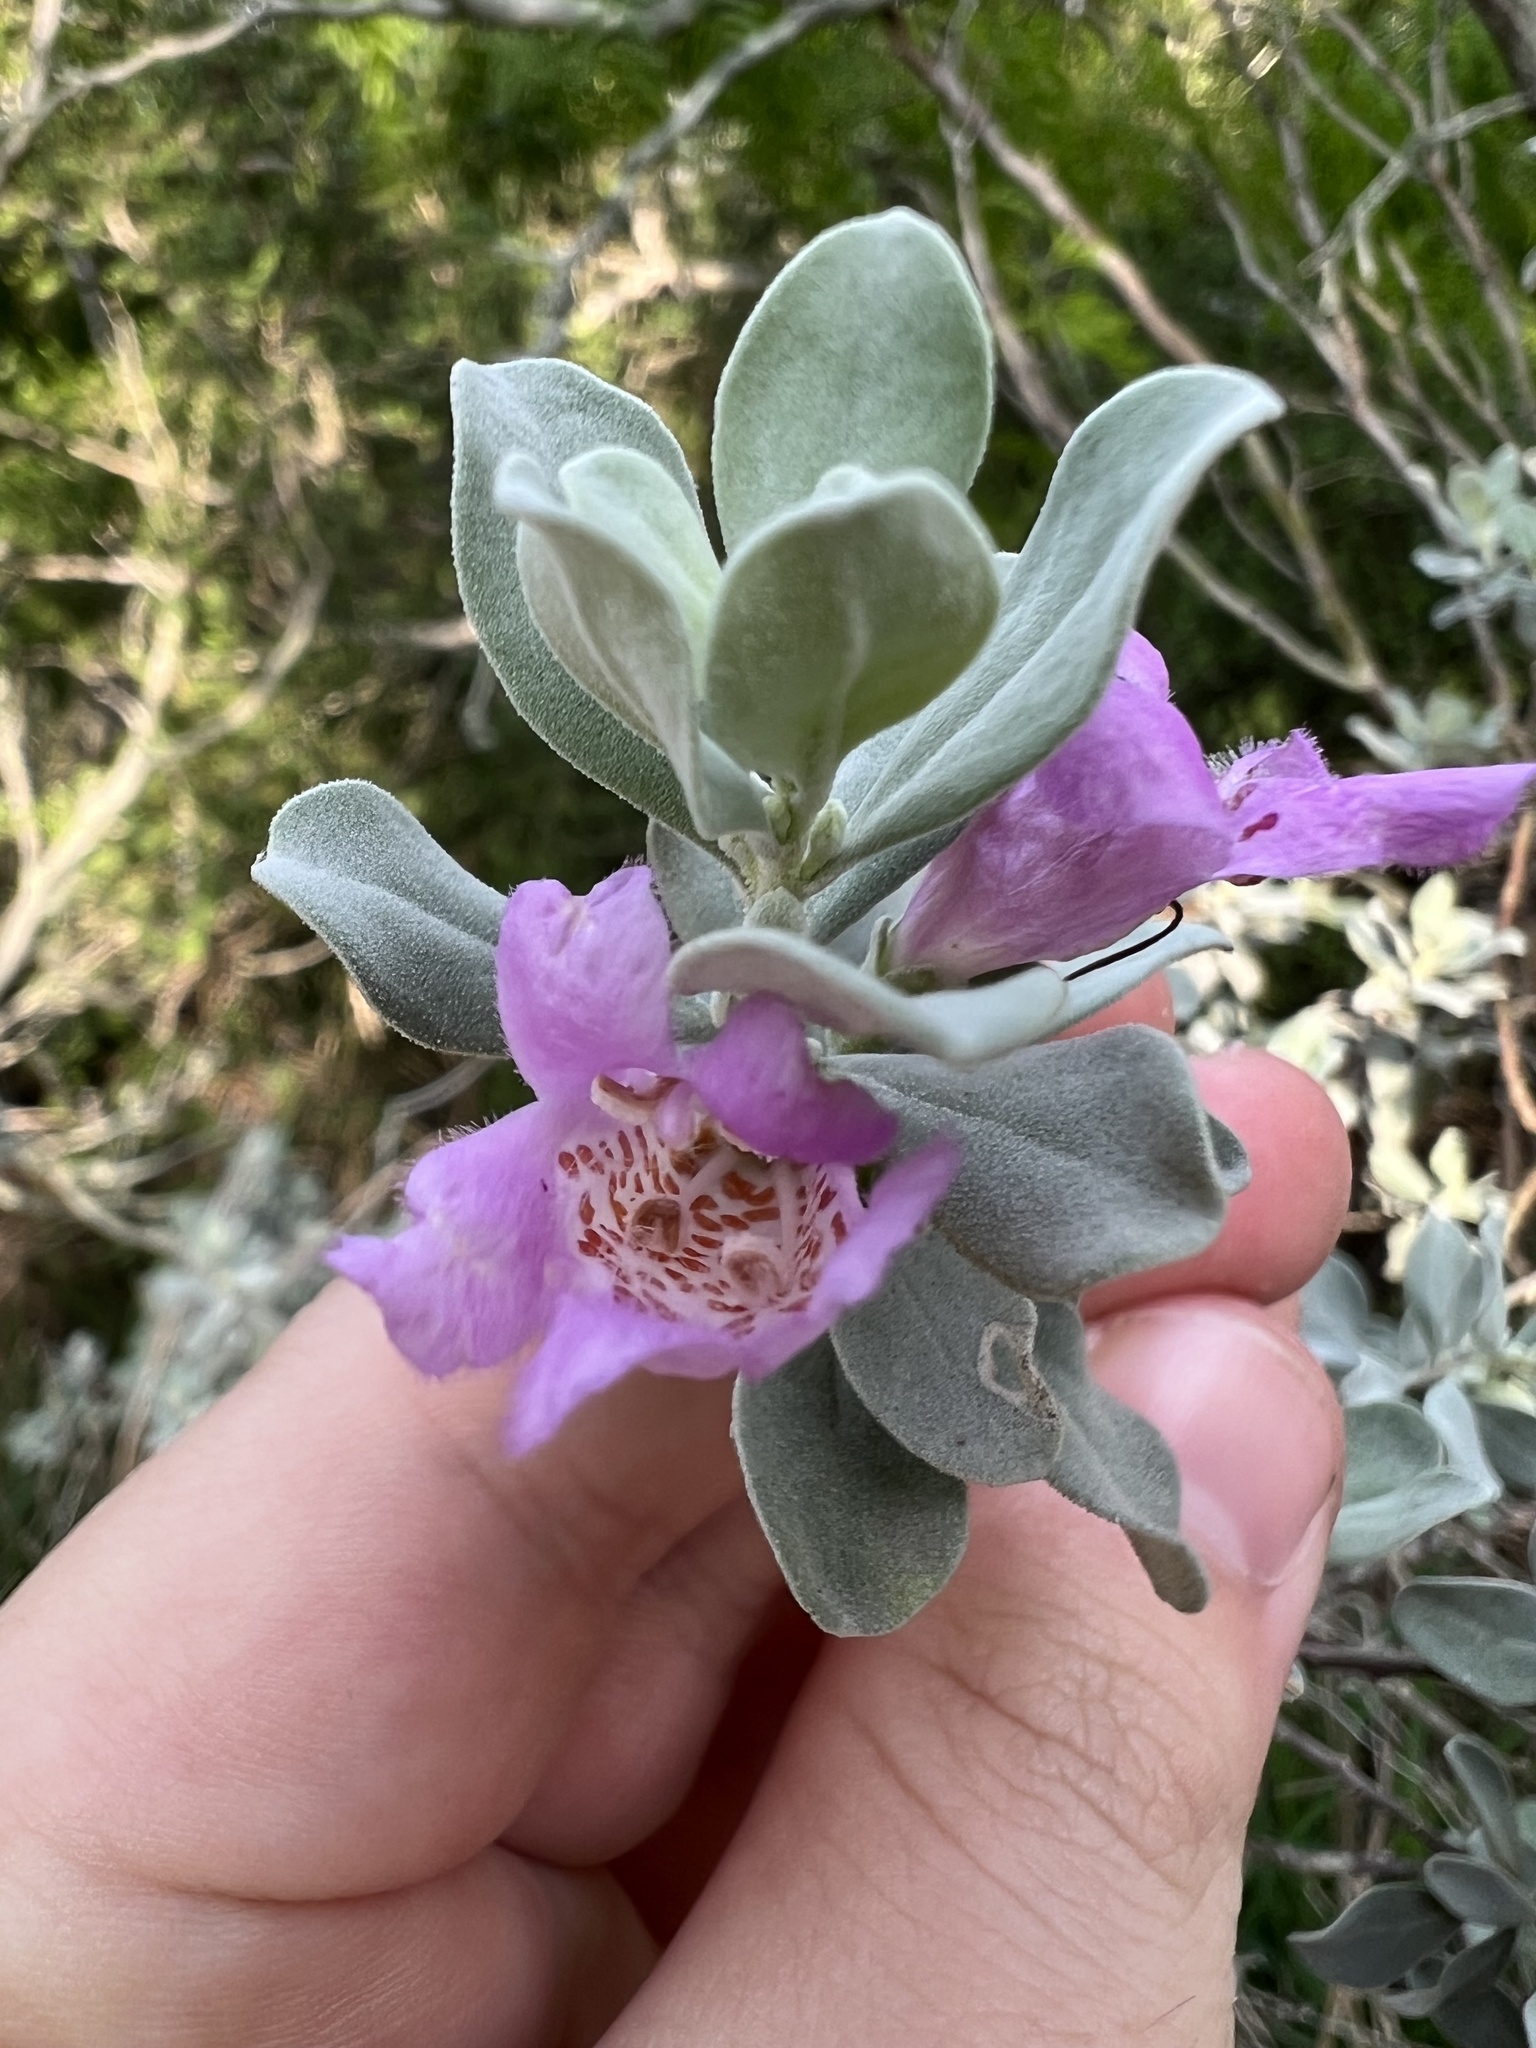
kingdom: Plantae
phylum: Tracheophyta
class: Magnoliopsida
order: Lamiales
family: Scrophulariaceae
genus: Leucophyllum
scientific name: Leucophyllum frutescens
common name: Texas silverleaf
